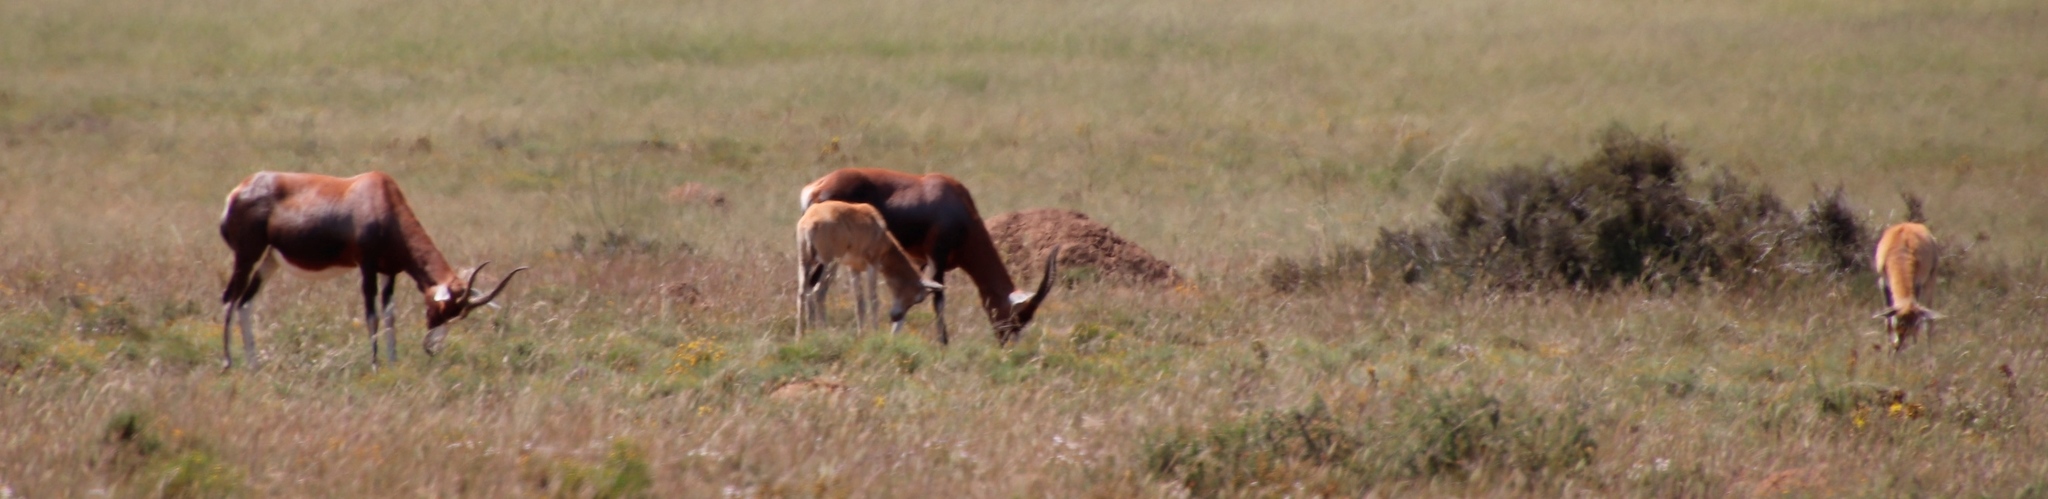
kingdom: Animalia
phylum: Chordata
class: Mammalia
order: Artiodactyla
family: Bovidae
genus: Damaliscus
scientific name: Damaliscus pygargus
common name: Bontebok
